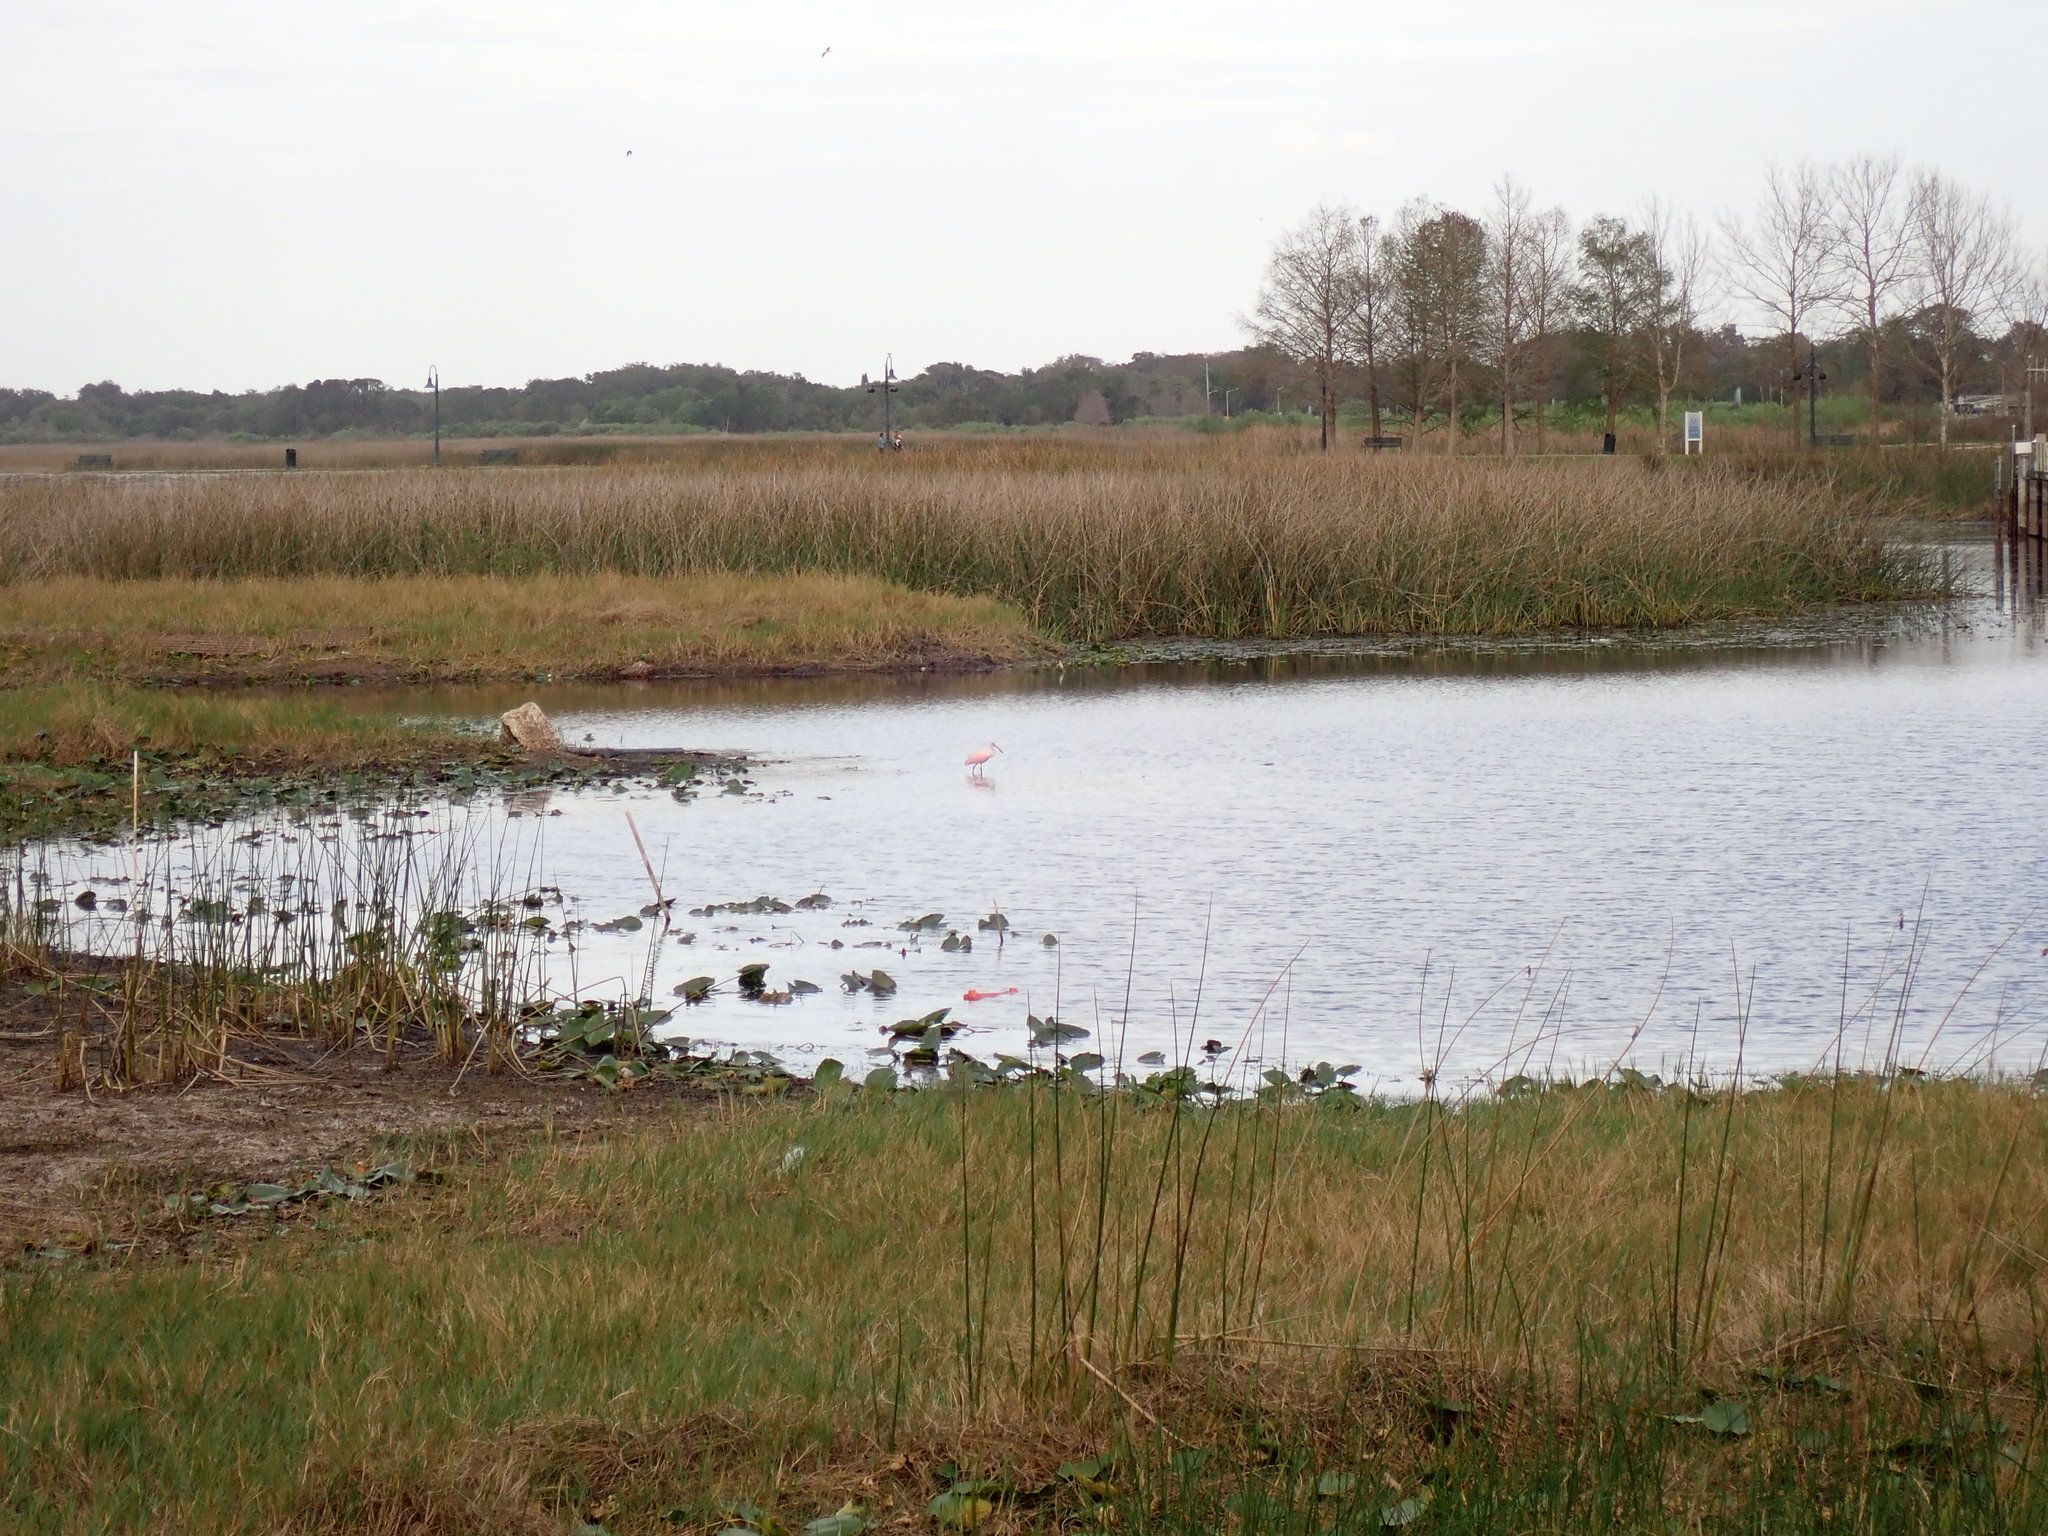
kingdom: Animalia
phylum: Chordata
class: Aves
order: Pelecaniformes
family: Threskiornithidae
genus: Platalea
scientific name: Platalea ajaja
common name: Roseate spoonbill
